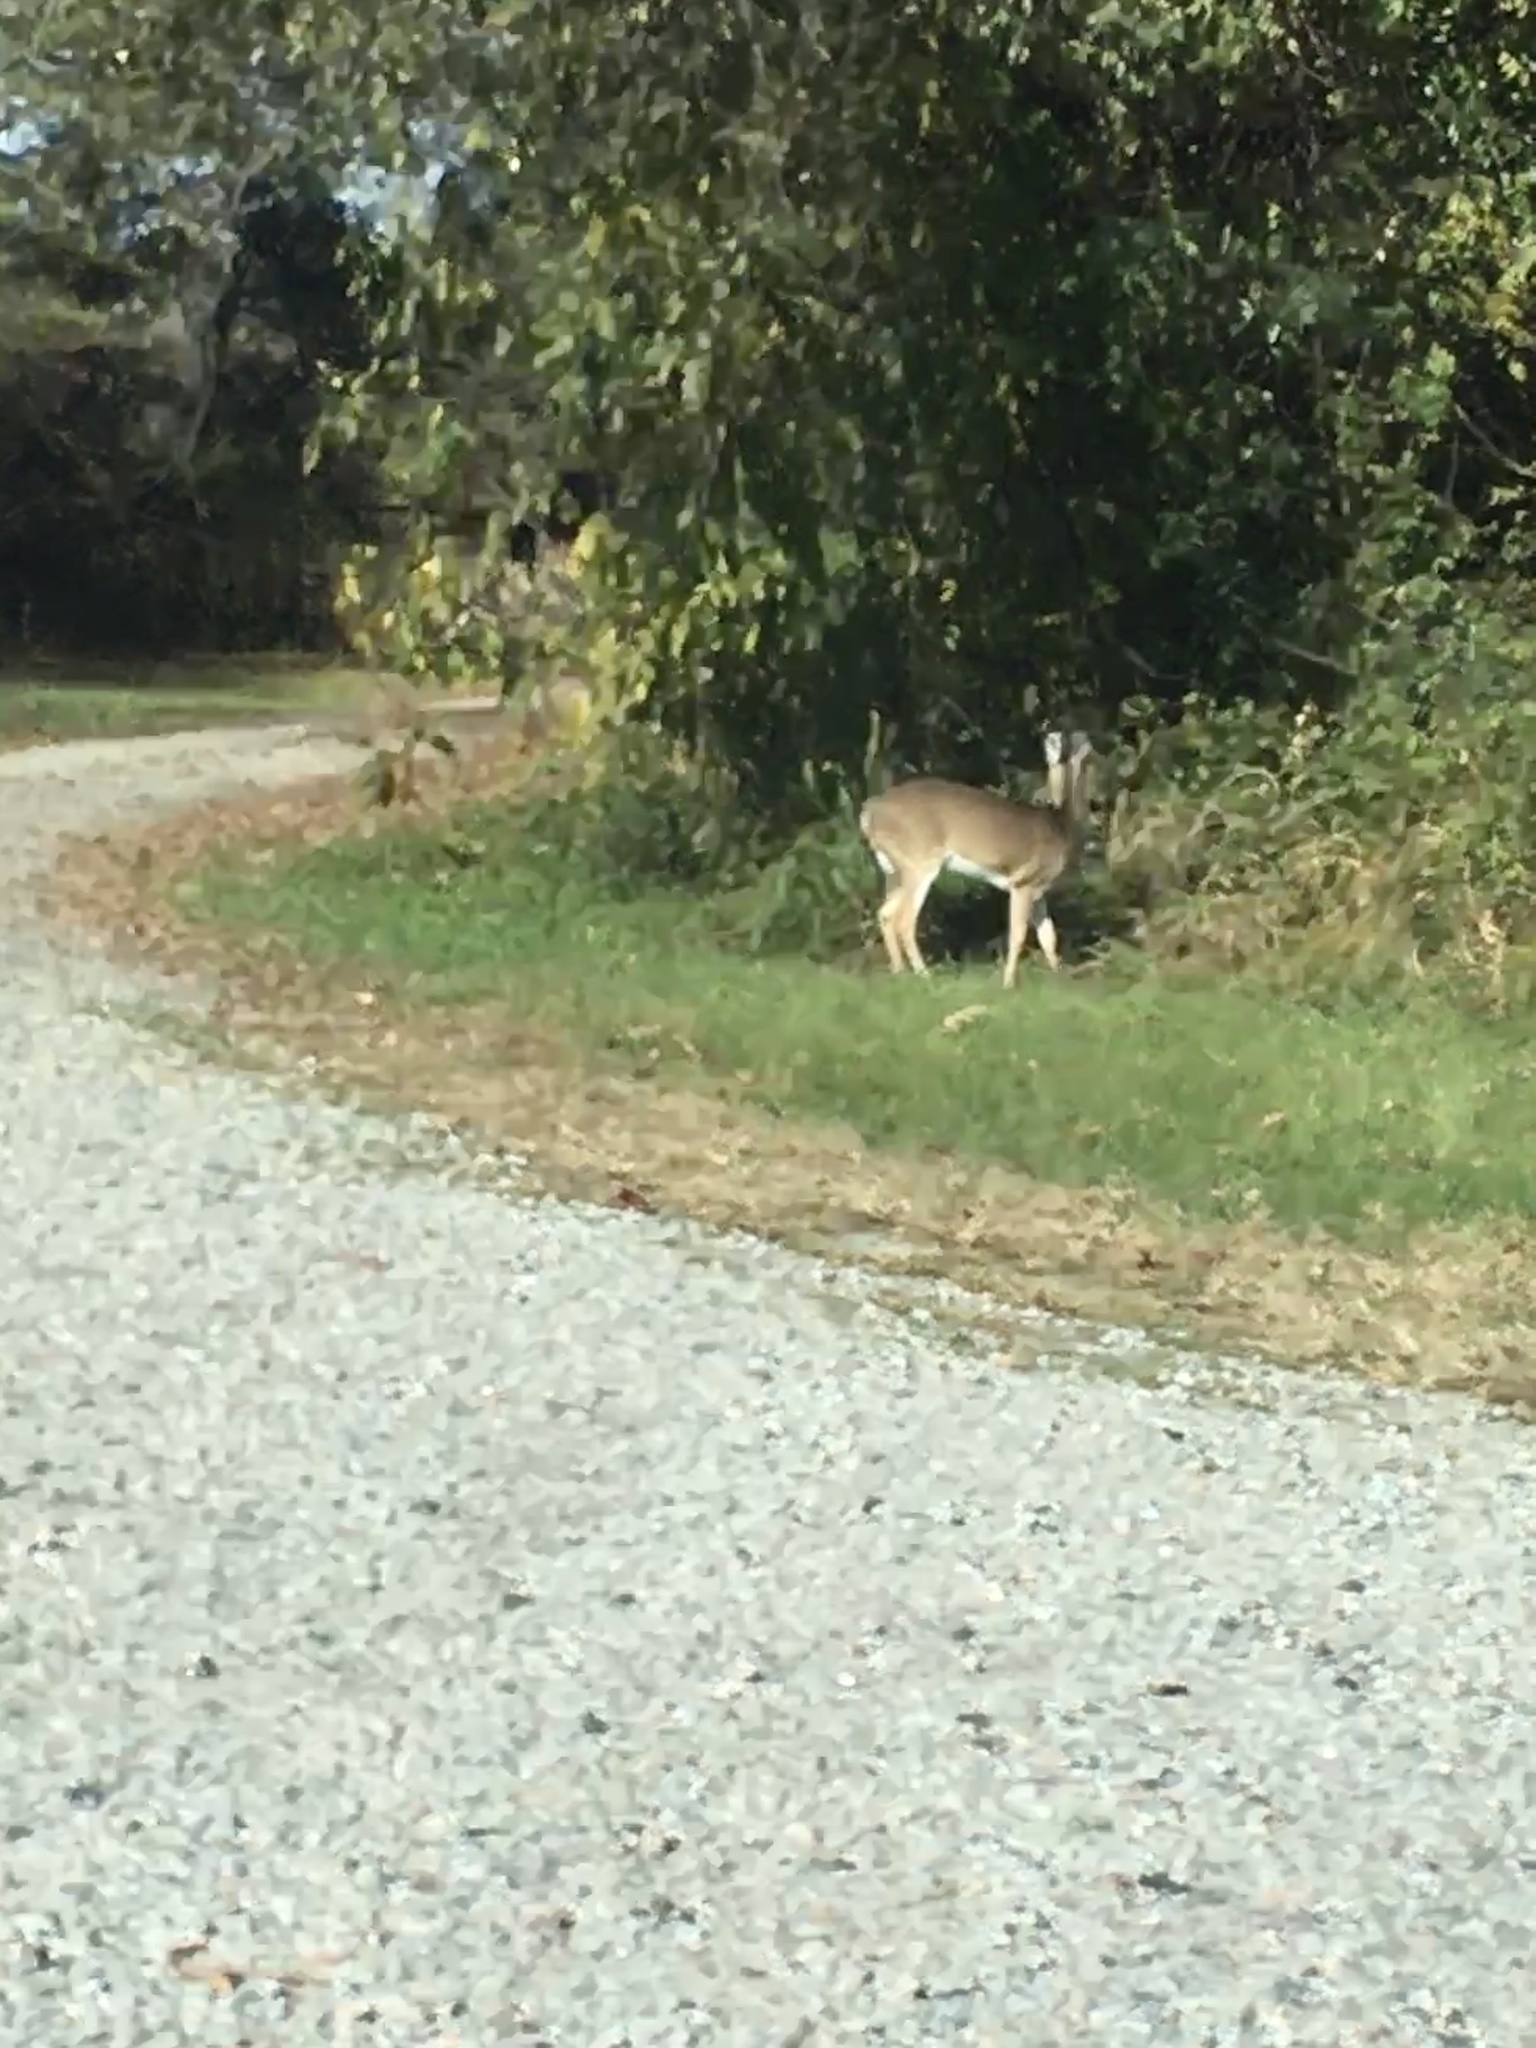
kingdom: Animalia
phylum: Chordata
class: Mammalia
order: Artiodactyla
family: Cervidae
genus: Odocoileus
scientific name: Odocoileus virginianus
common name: White-tailed deer
